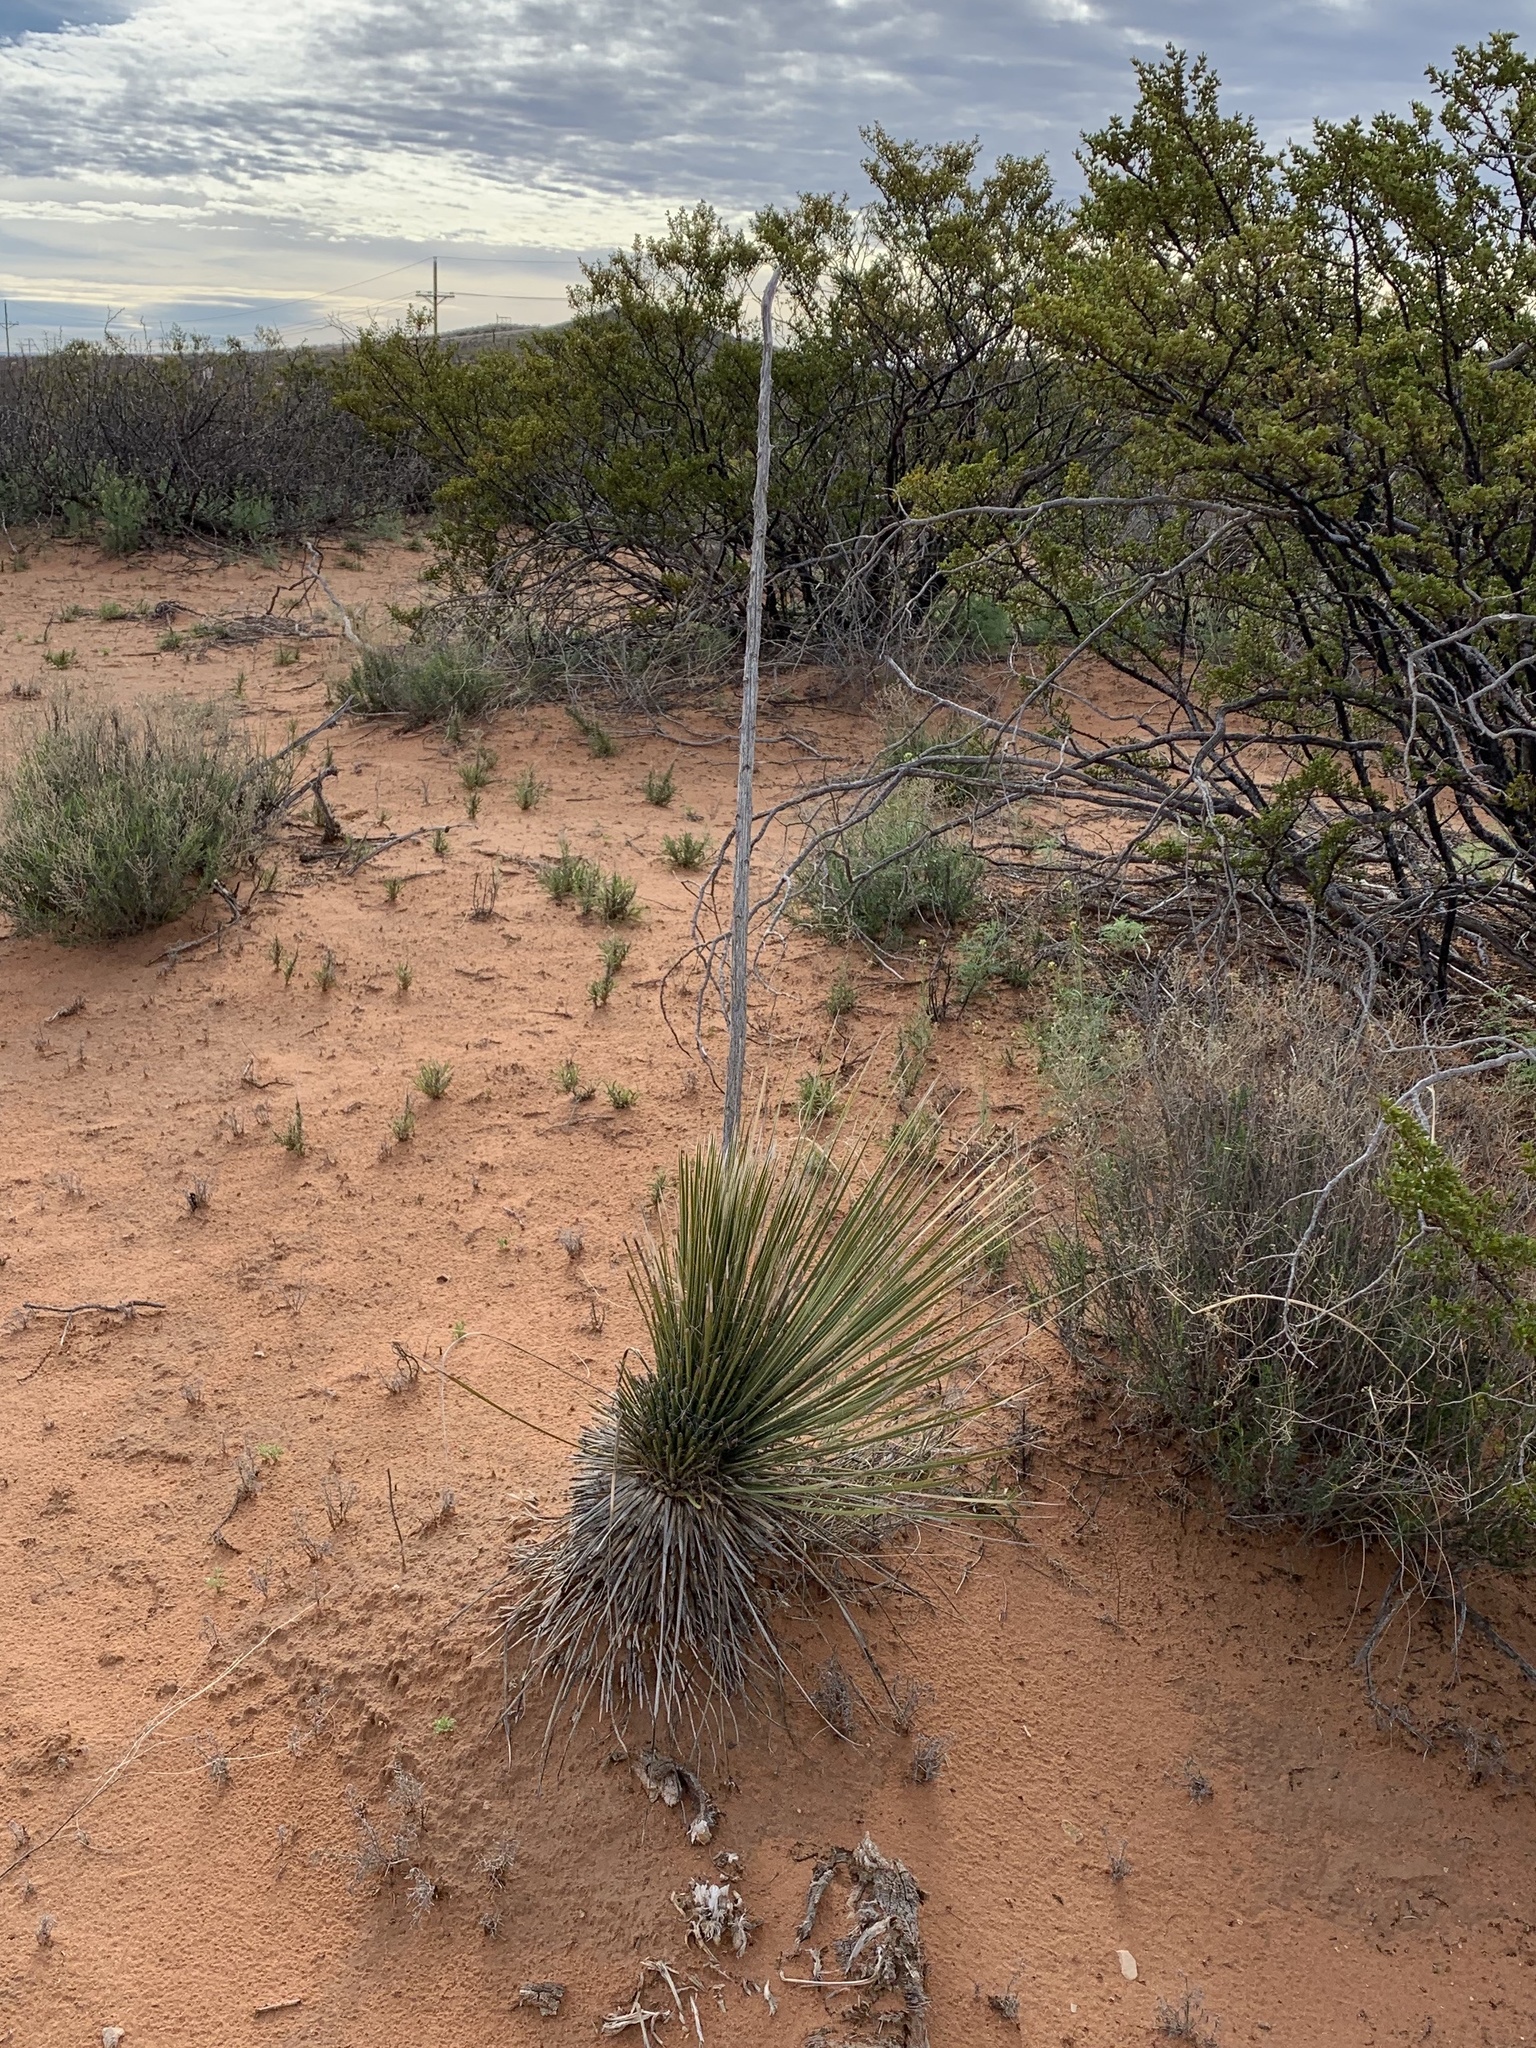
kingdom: Plantae
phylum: Tracheophyta
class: Liliopsida
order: Asparagales
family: Asparagaceae
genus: Yucca
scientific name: Yucca elata
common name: Palmella
